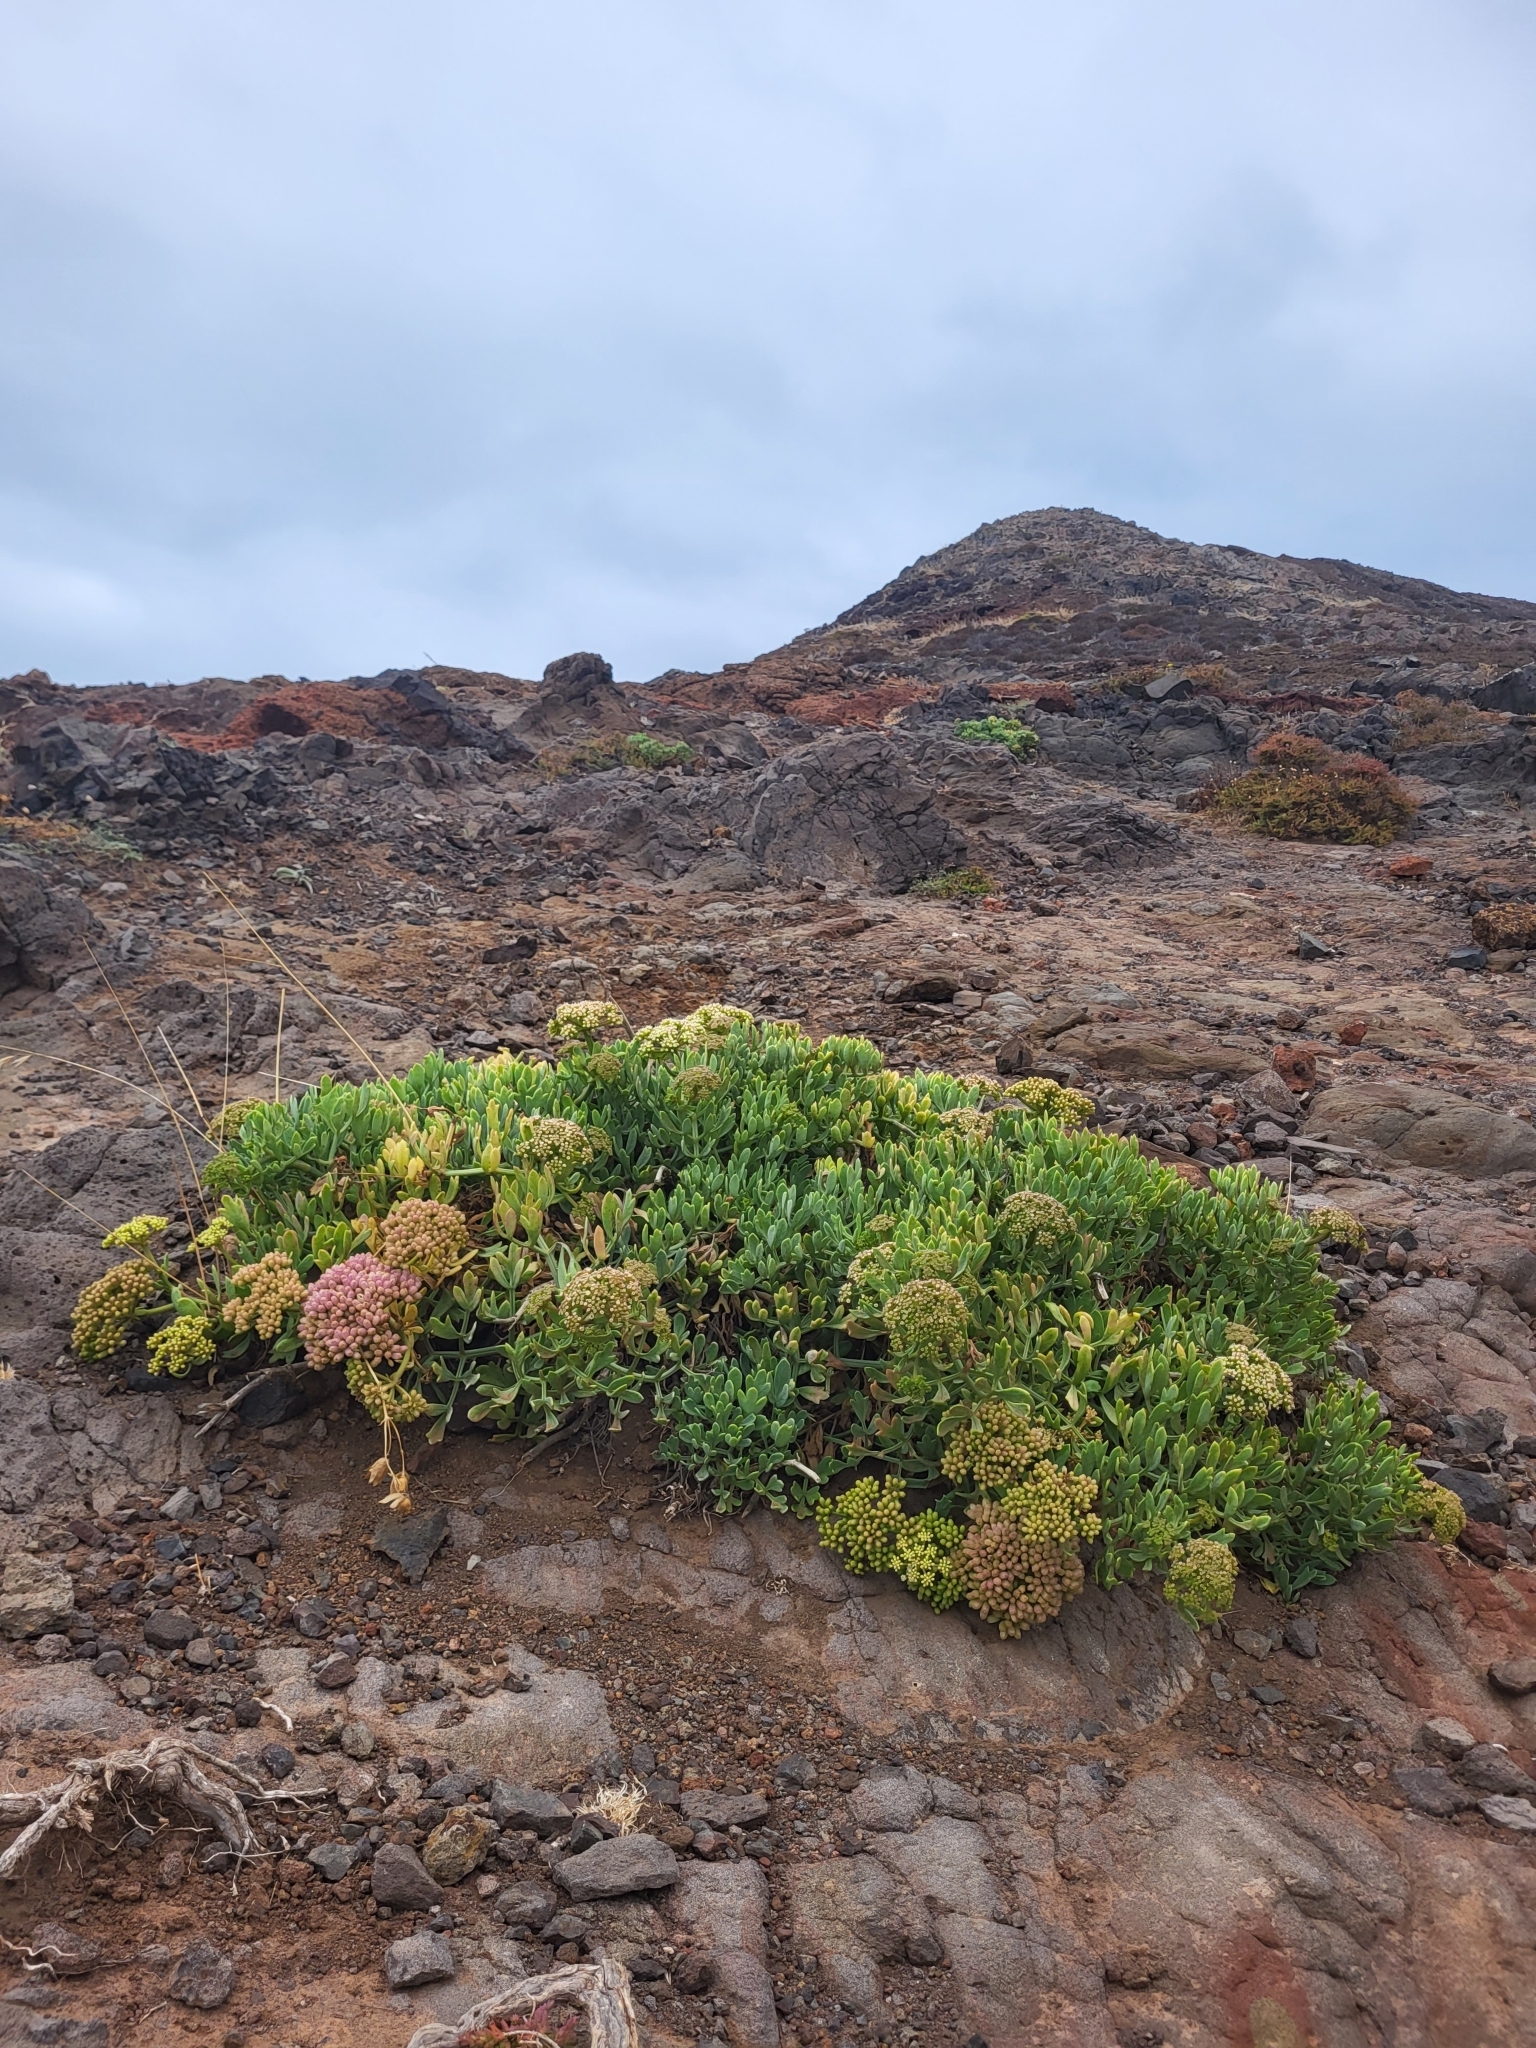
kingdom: Plantae
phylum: Tracheophyta
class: Magnoliopsida
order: Apiales
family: Apiaceae
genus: Crithmum
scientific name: Crithmum maritimum
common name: Rock samphire
